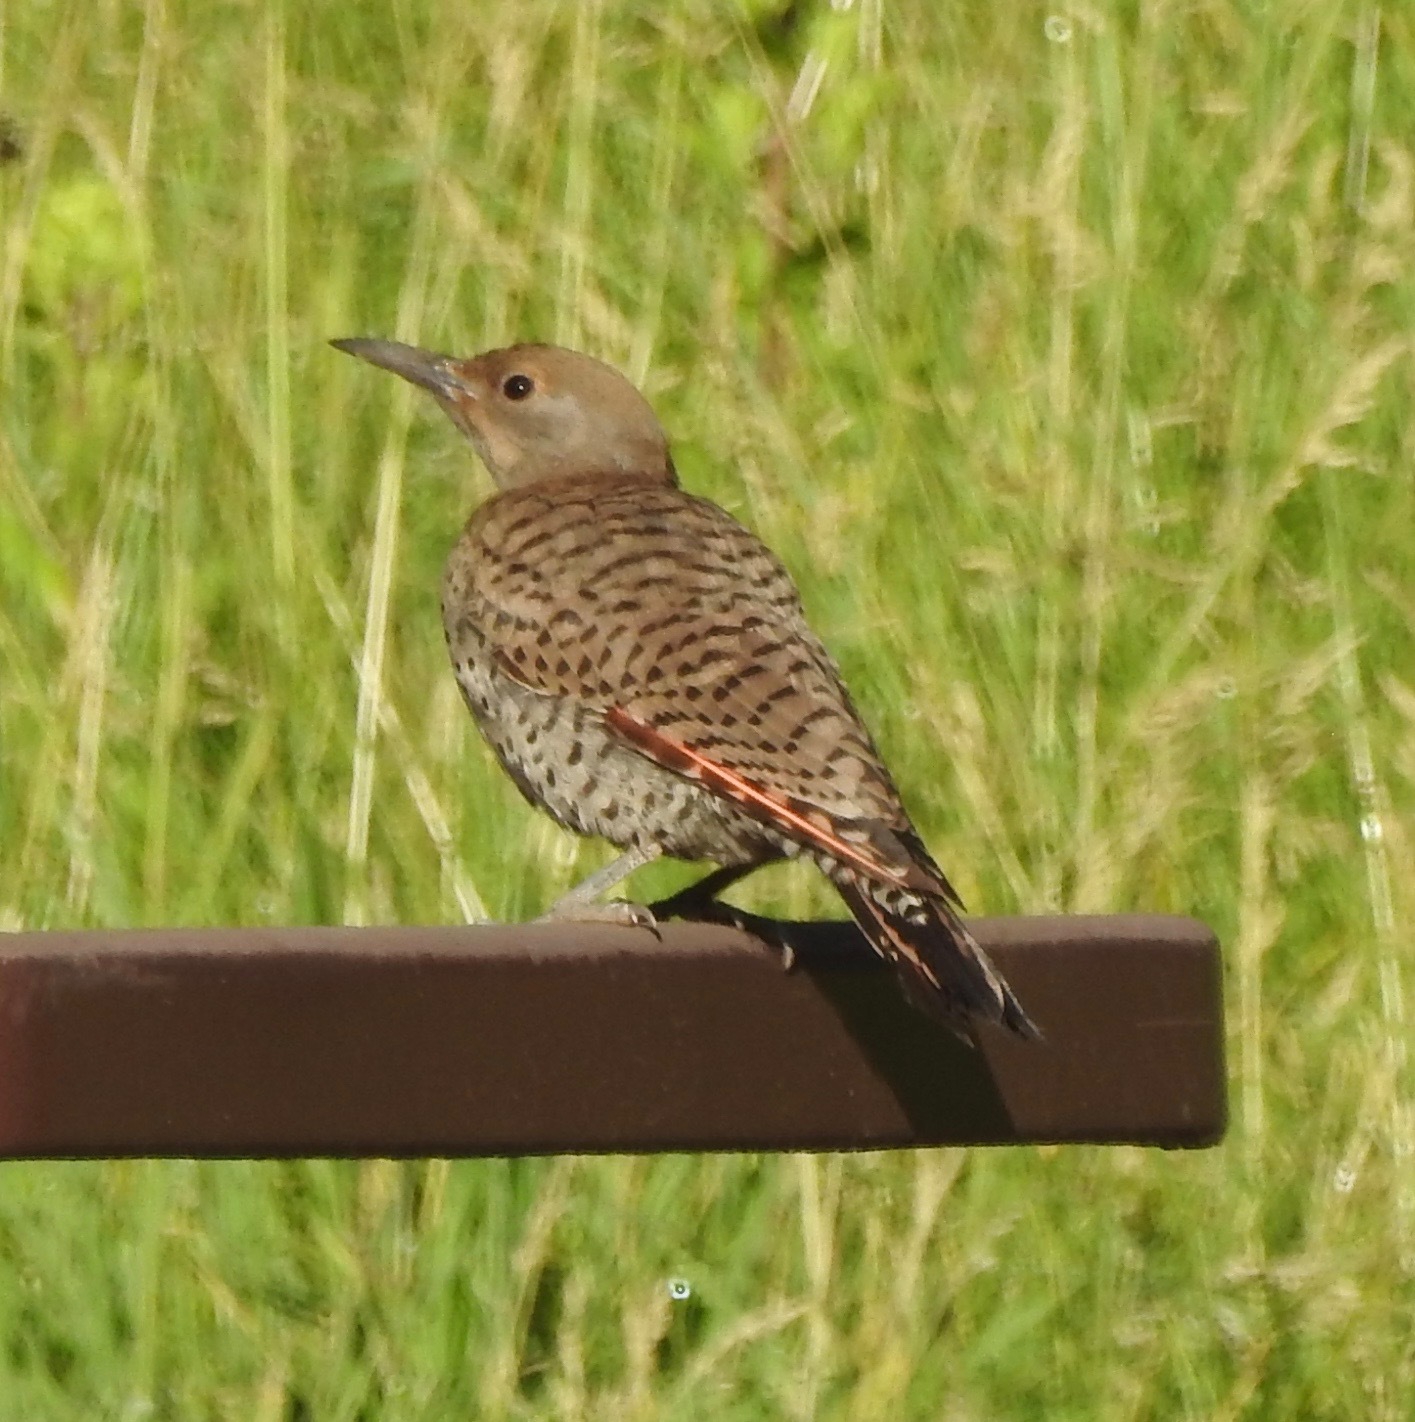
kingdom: Animalia
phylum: Chordata
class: Aves
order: Piciformes
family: Picidae
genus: Colaptes
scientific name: Colaptes auratus
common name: Northern flicker
